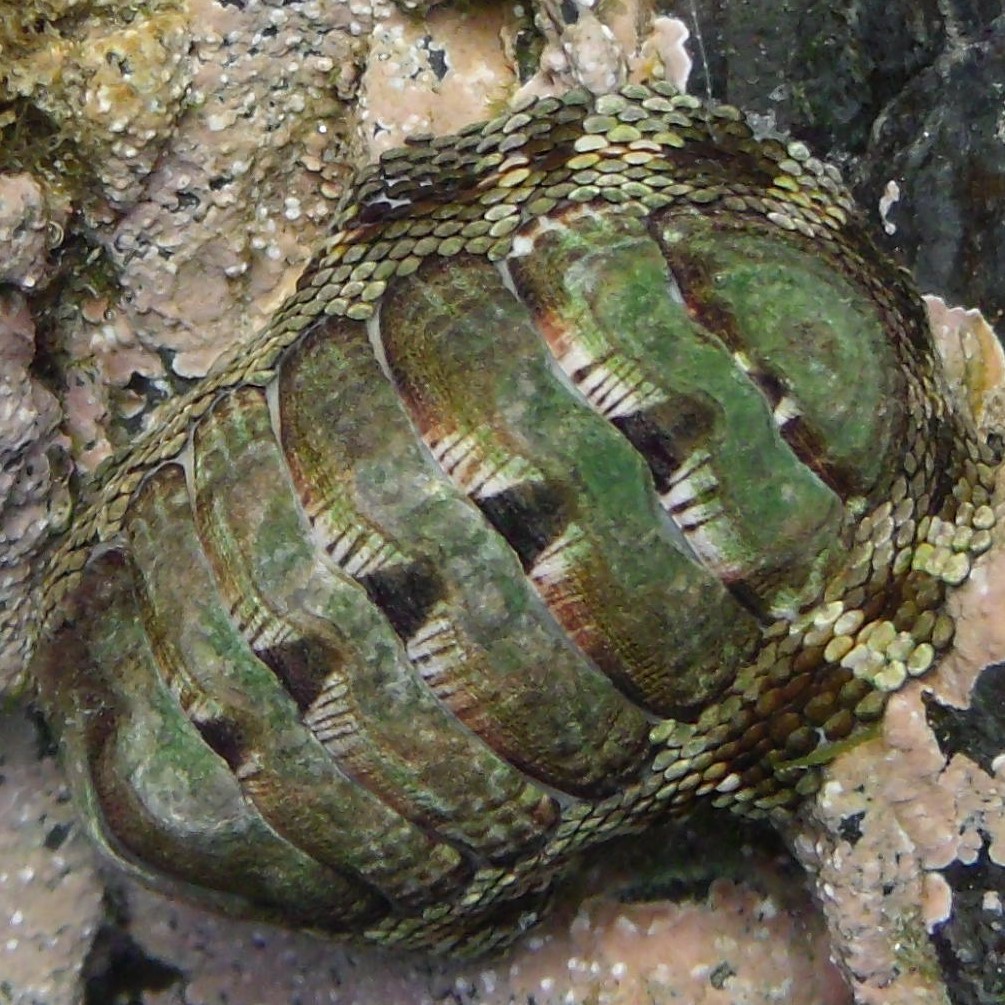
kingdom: Animalia
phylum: Mollusca
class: Polyplacophora
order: Chitonida
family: Chitonidae
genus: Sypharochiton
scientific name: Sypharochiton pelliserpentis
